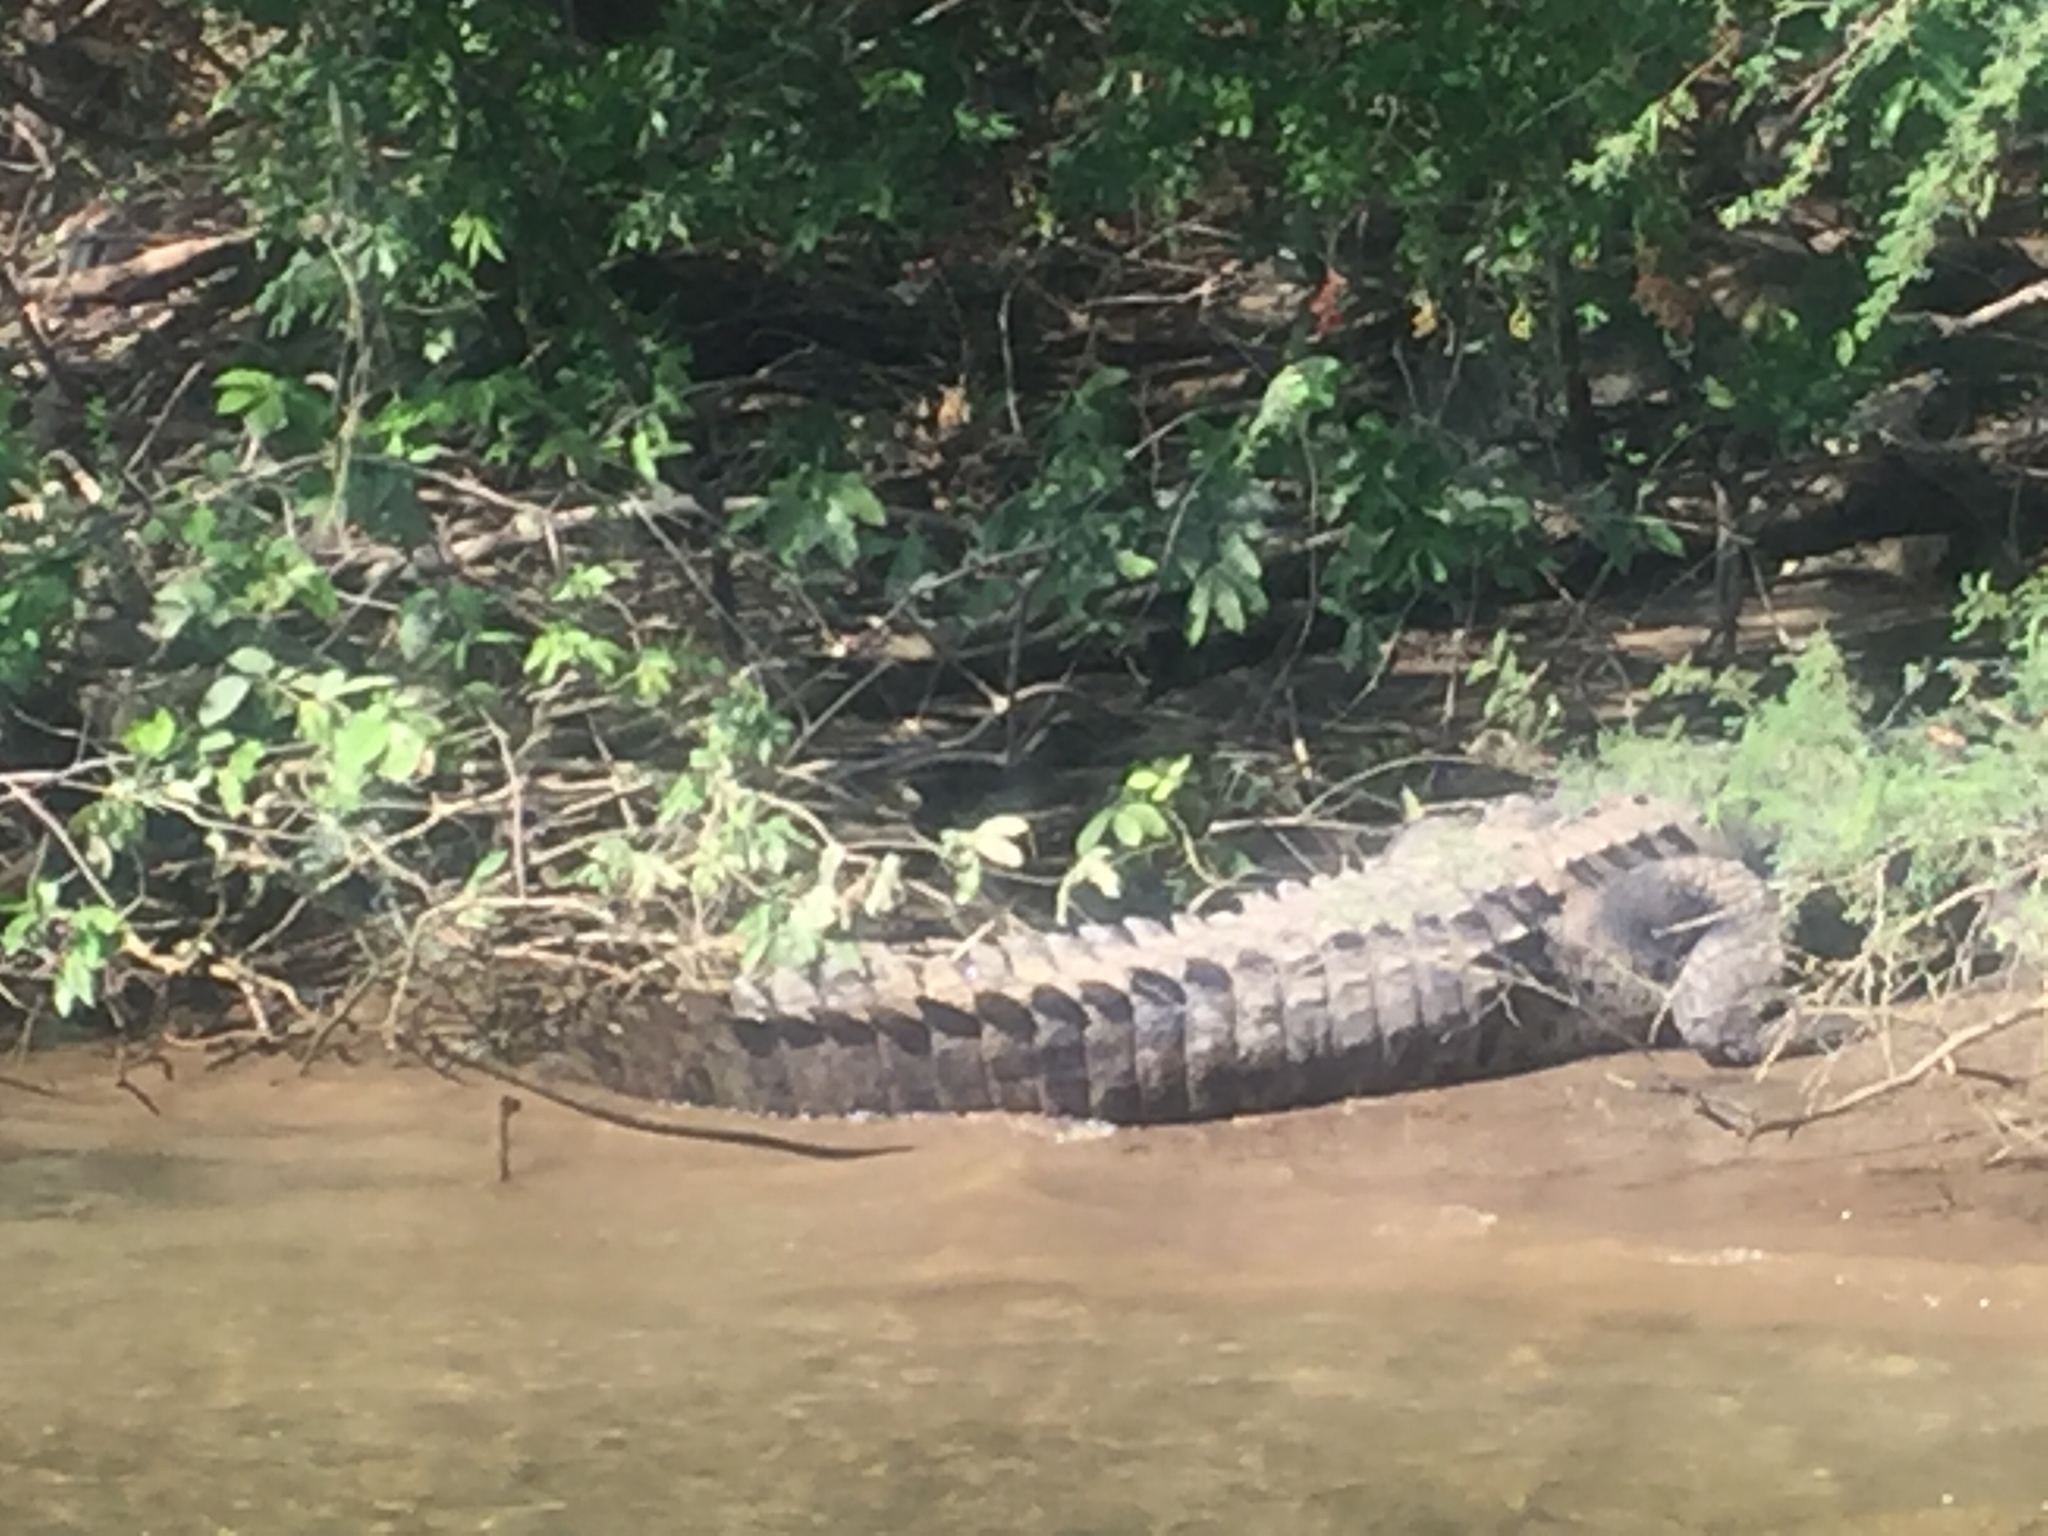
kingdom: Animalia
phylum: Chordata
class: Crocodylia
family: Crocodylidae
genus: Crocodylus
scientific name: Crocodylus acutus
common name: American crocodile
